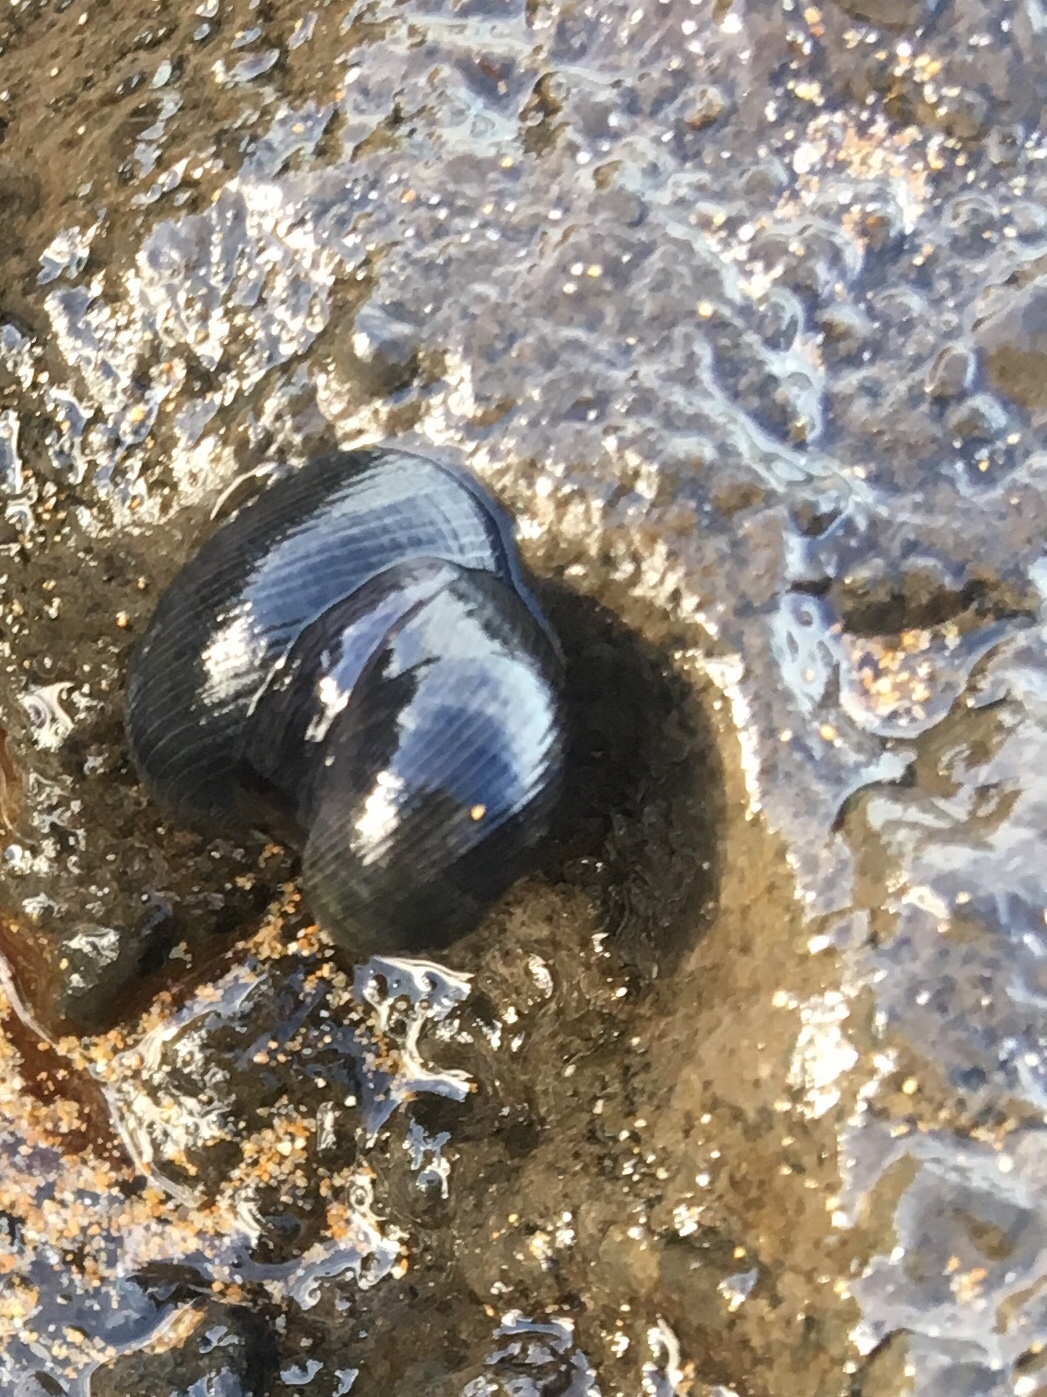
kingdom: Animalia
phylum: Mollusca
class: Gastropoda
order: Cycloneritida
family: Neritidae
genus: Nerita
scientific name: Nerita picea
